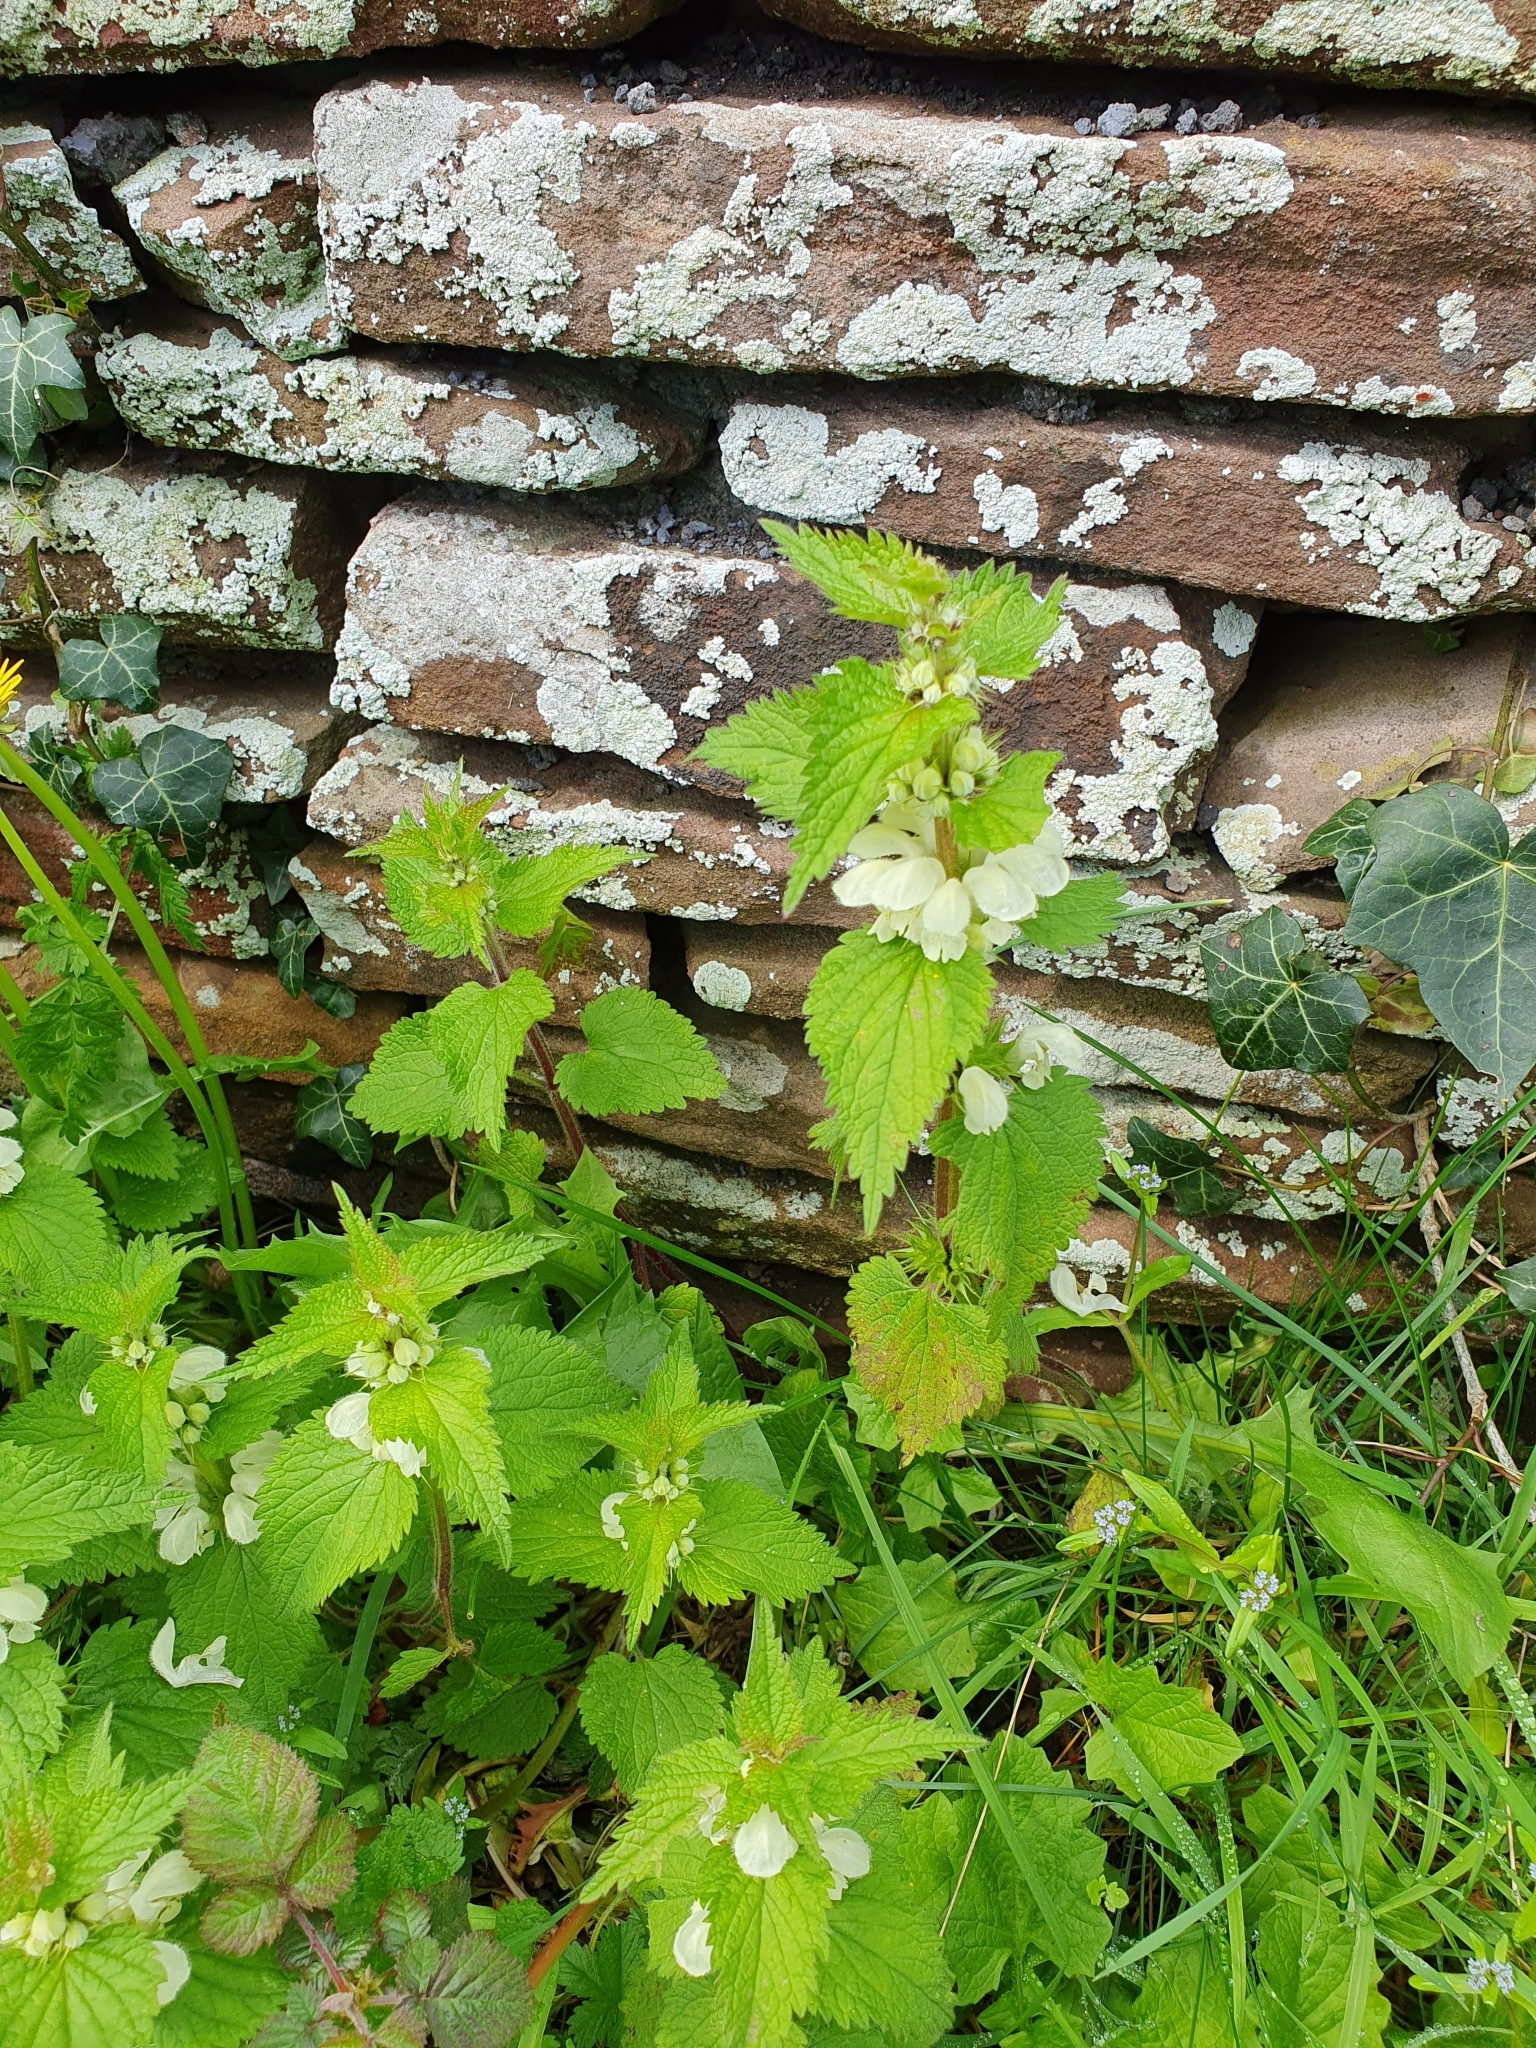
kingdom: Plantae
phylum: Tracheophyta
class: Magnoliopsida
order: Lamiales
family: Lamiaceae
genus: Lamium
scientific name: Lamium album
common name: White dead-nettle
